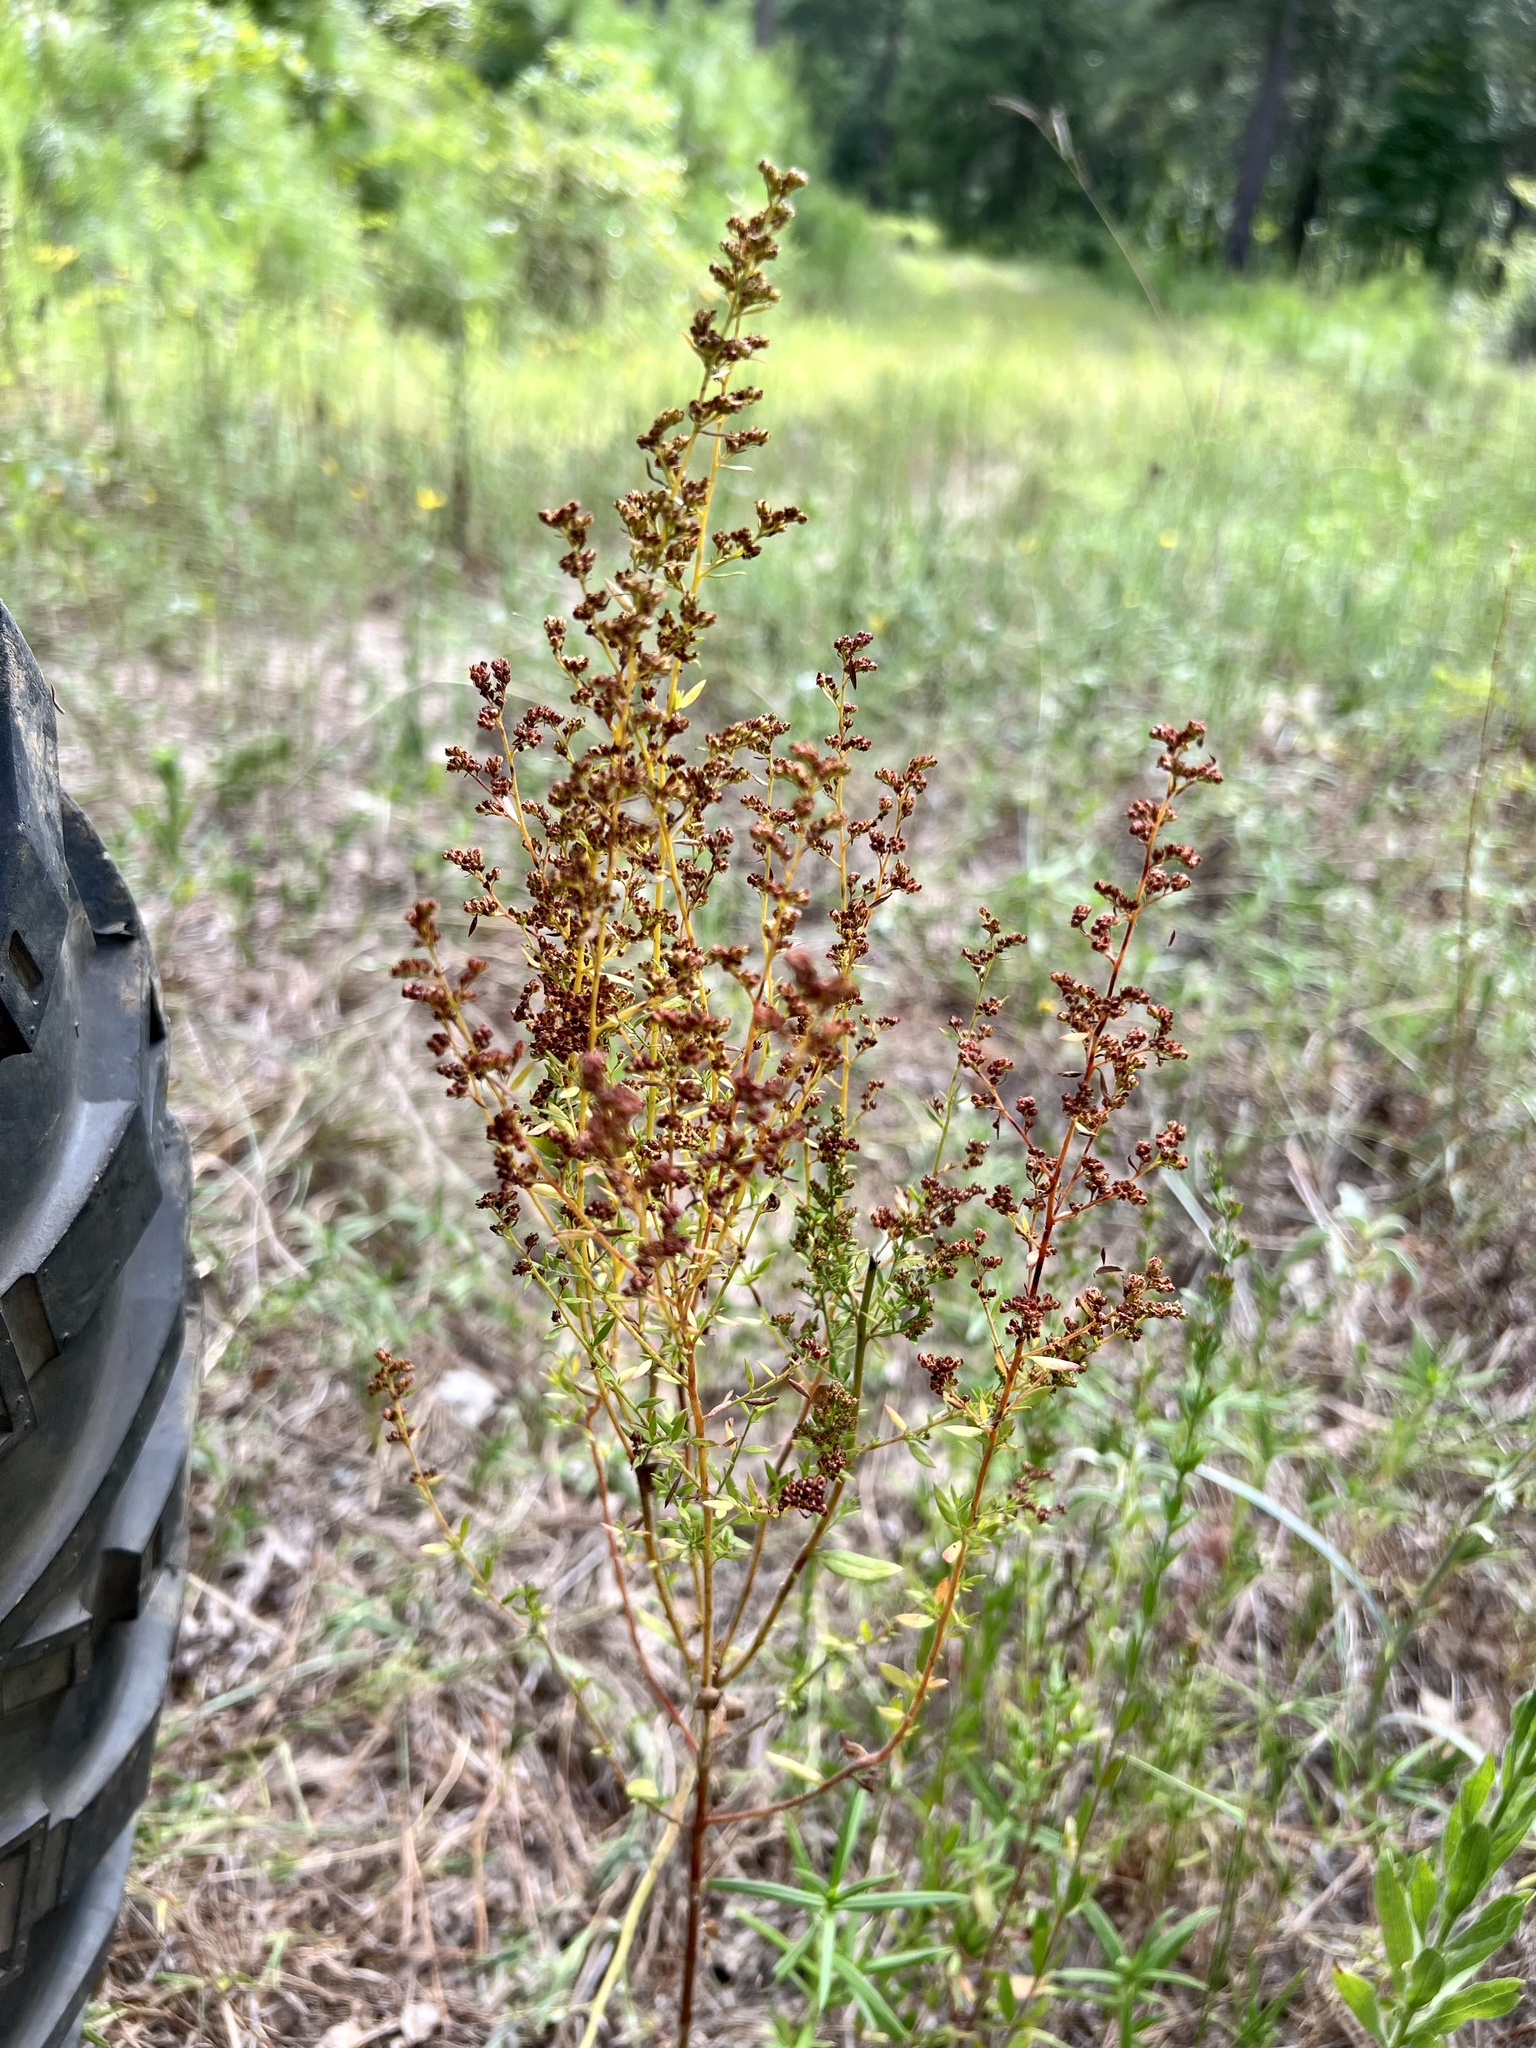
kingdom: Plantae
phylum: Tracheophyta
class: Magnoliopsida
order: Malvales
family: Cistaceae
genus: Lechea
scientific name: Lechea mucronata
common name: Hairy pinweed
